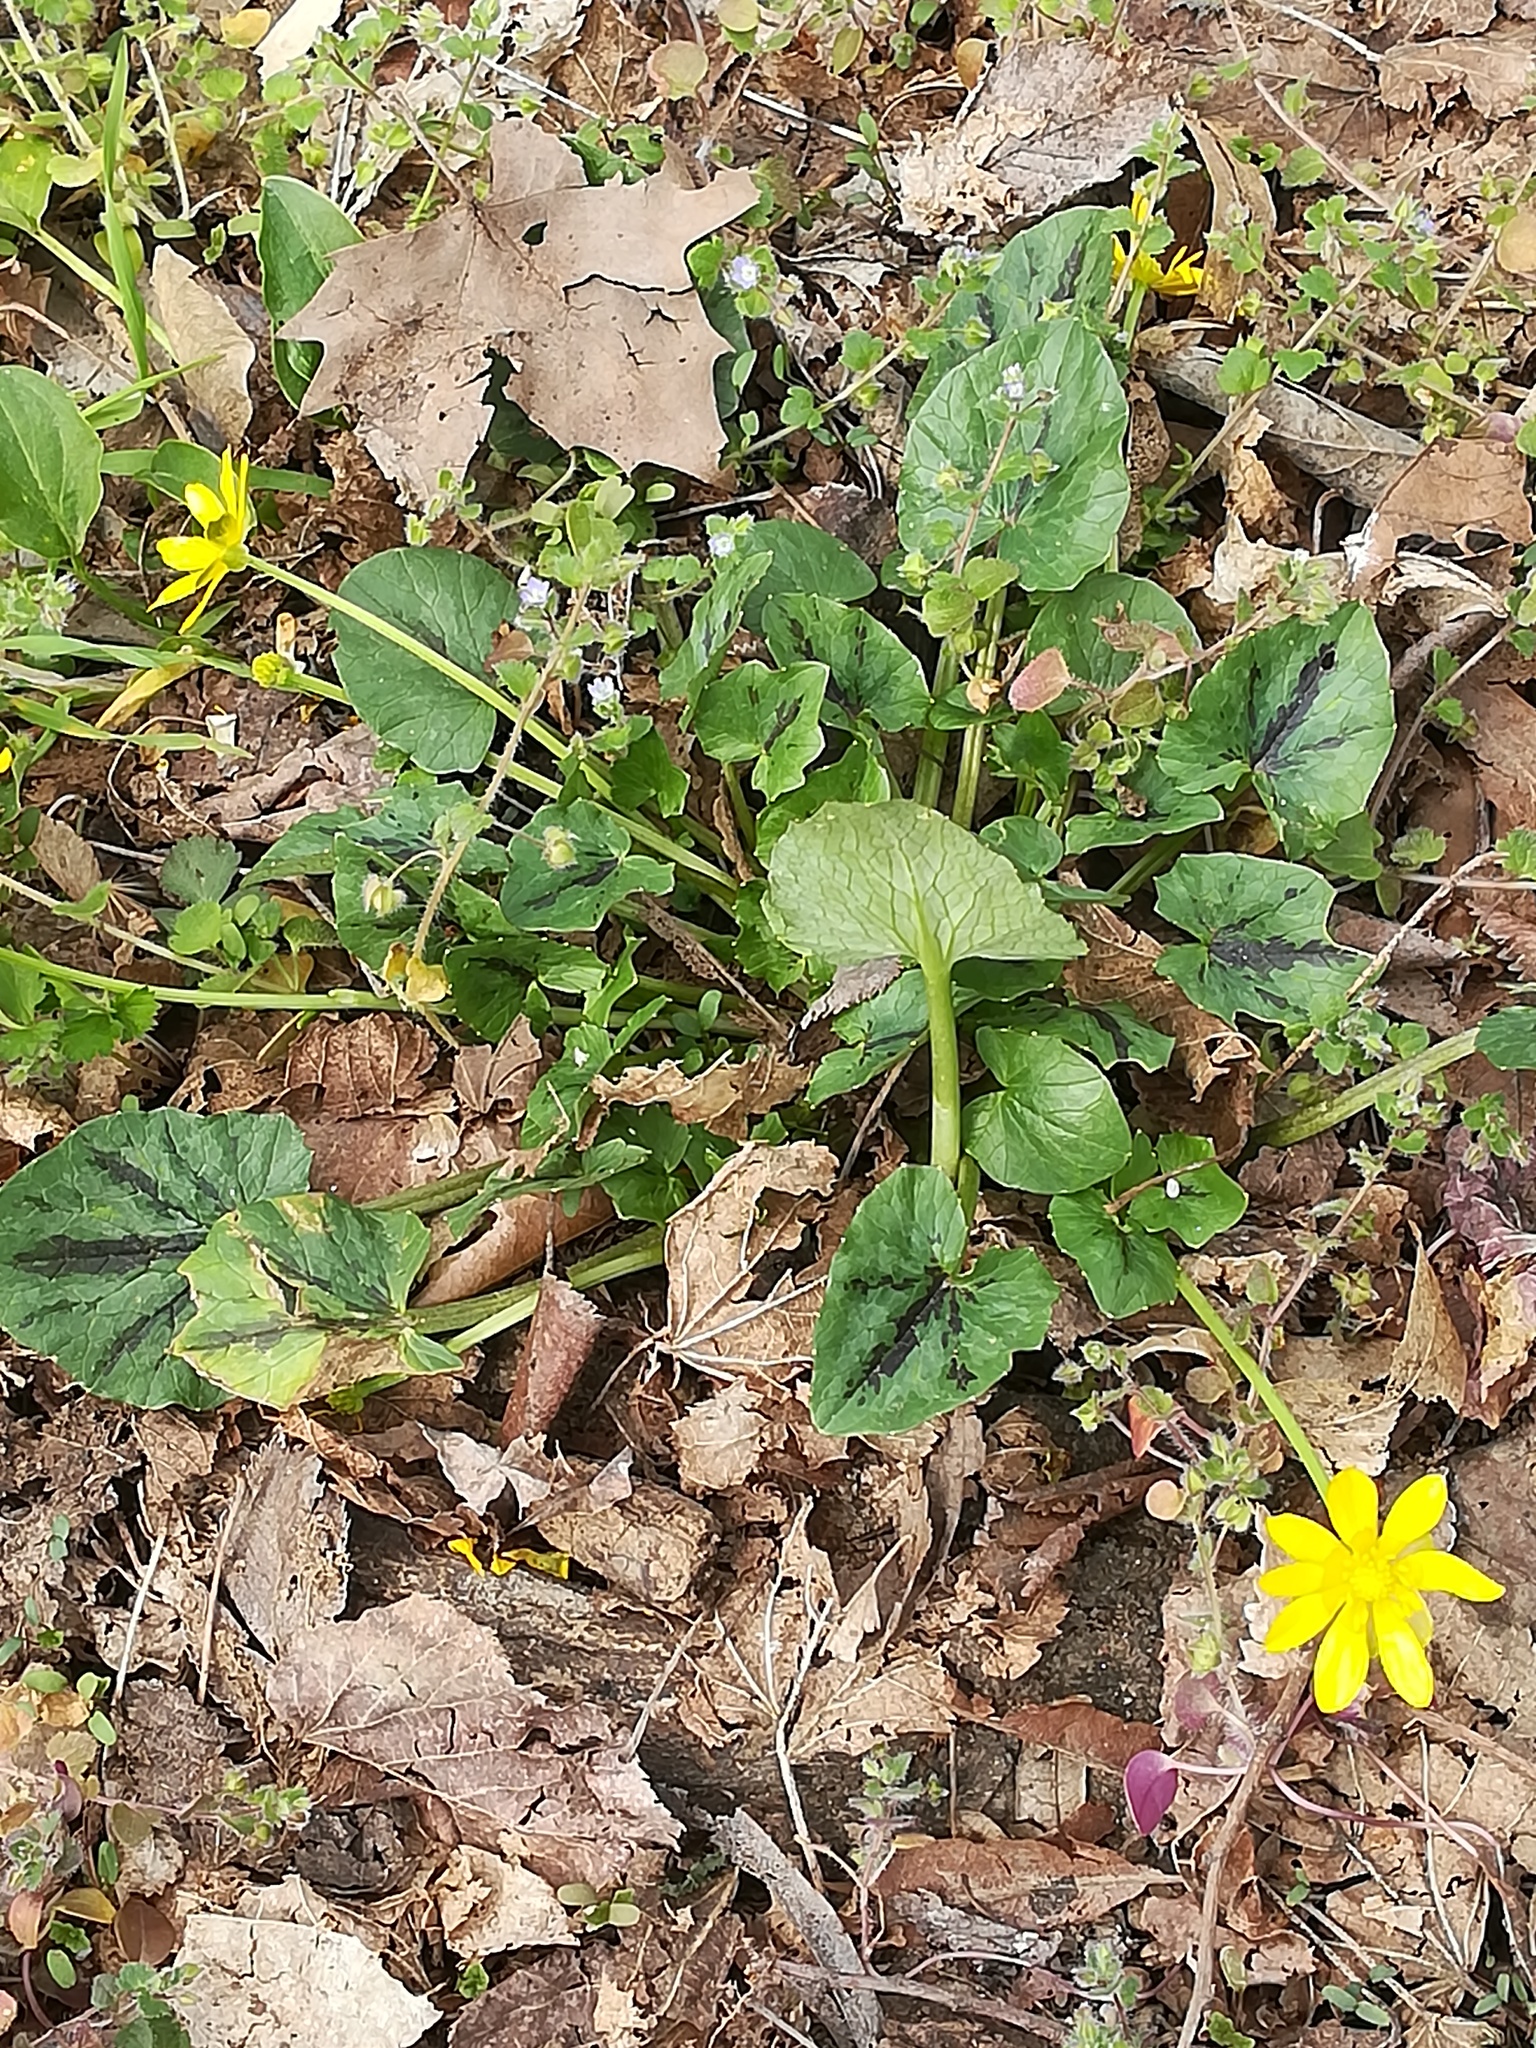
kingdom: Plantae
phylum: Tracheophyta
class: Magnoliopsida
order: Ranunculales
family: Ranunculaceae
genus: Ficaria
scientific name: Ficaria verna
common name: Lesser celandine
